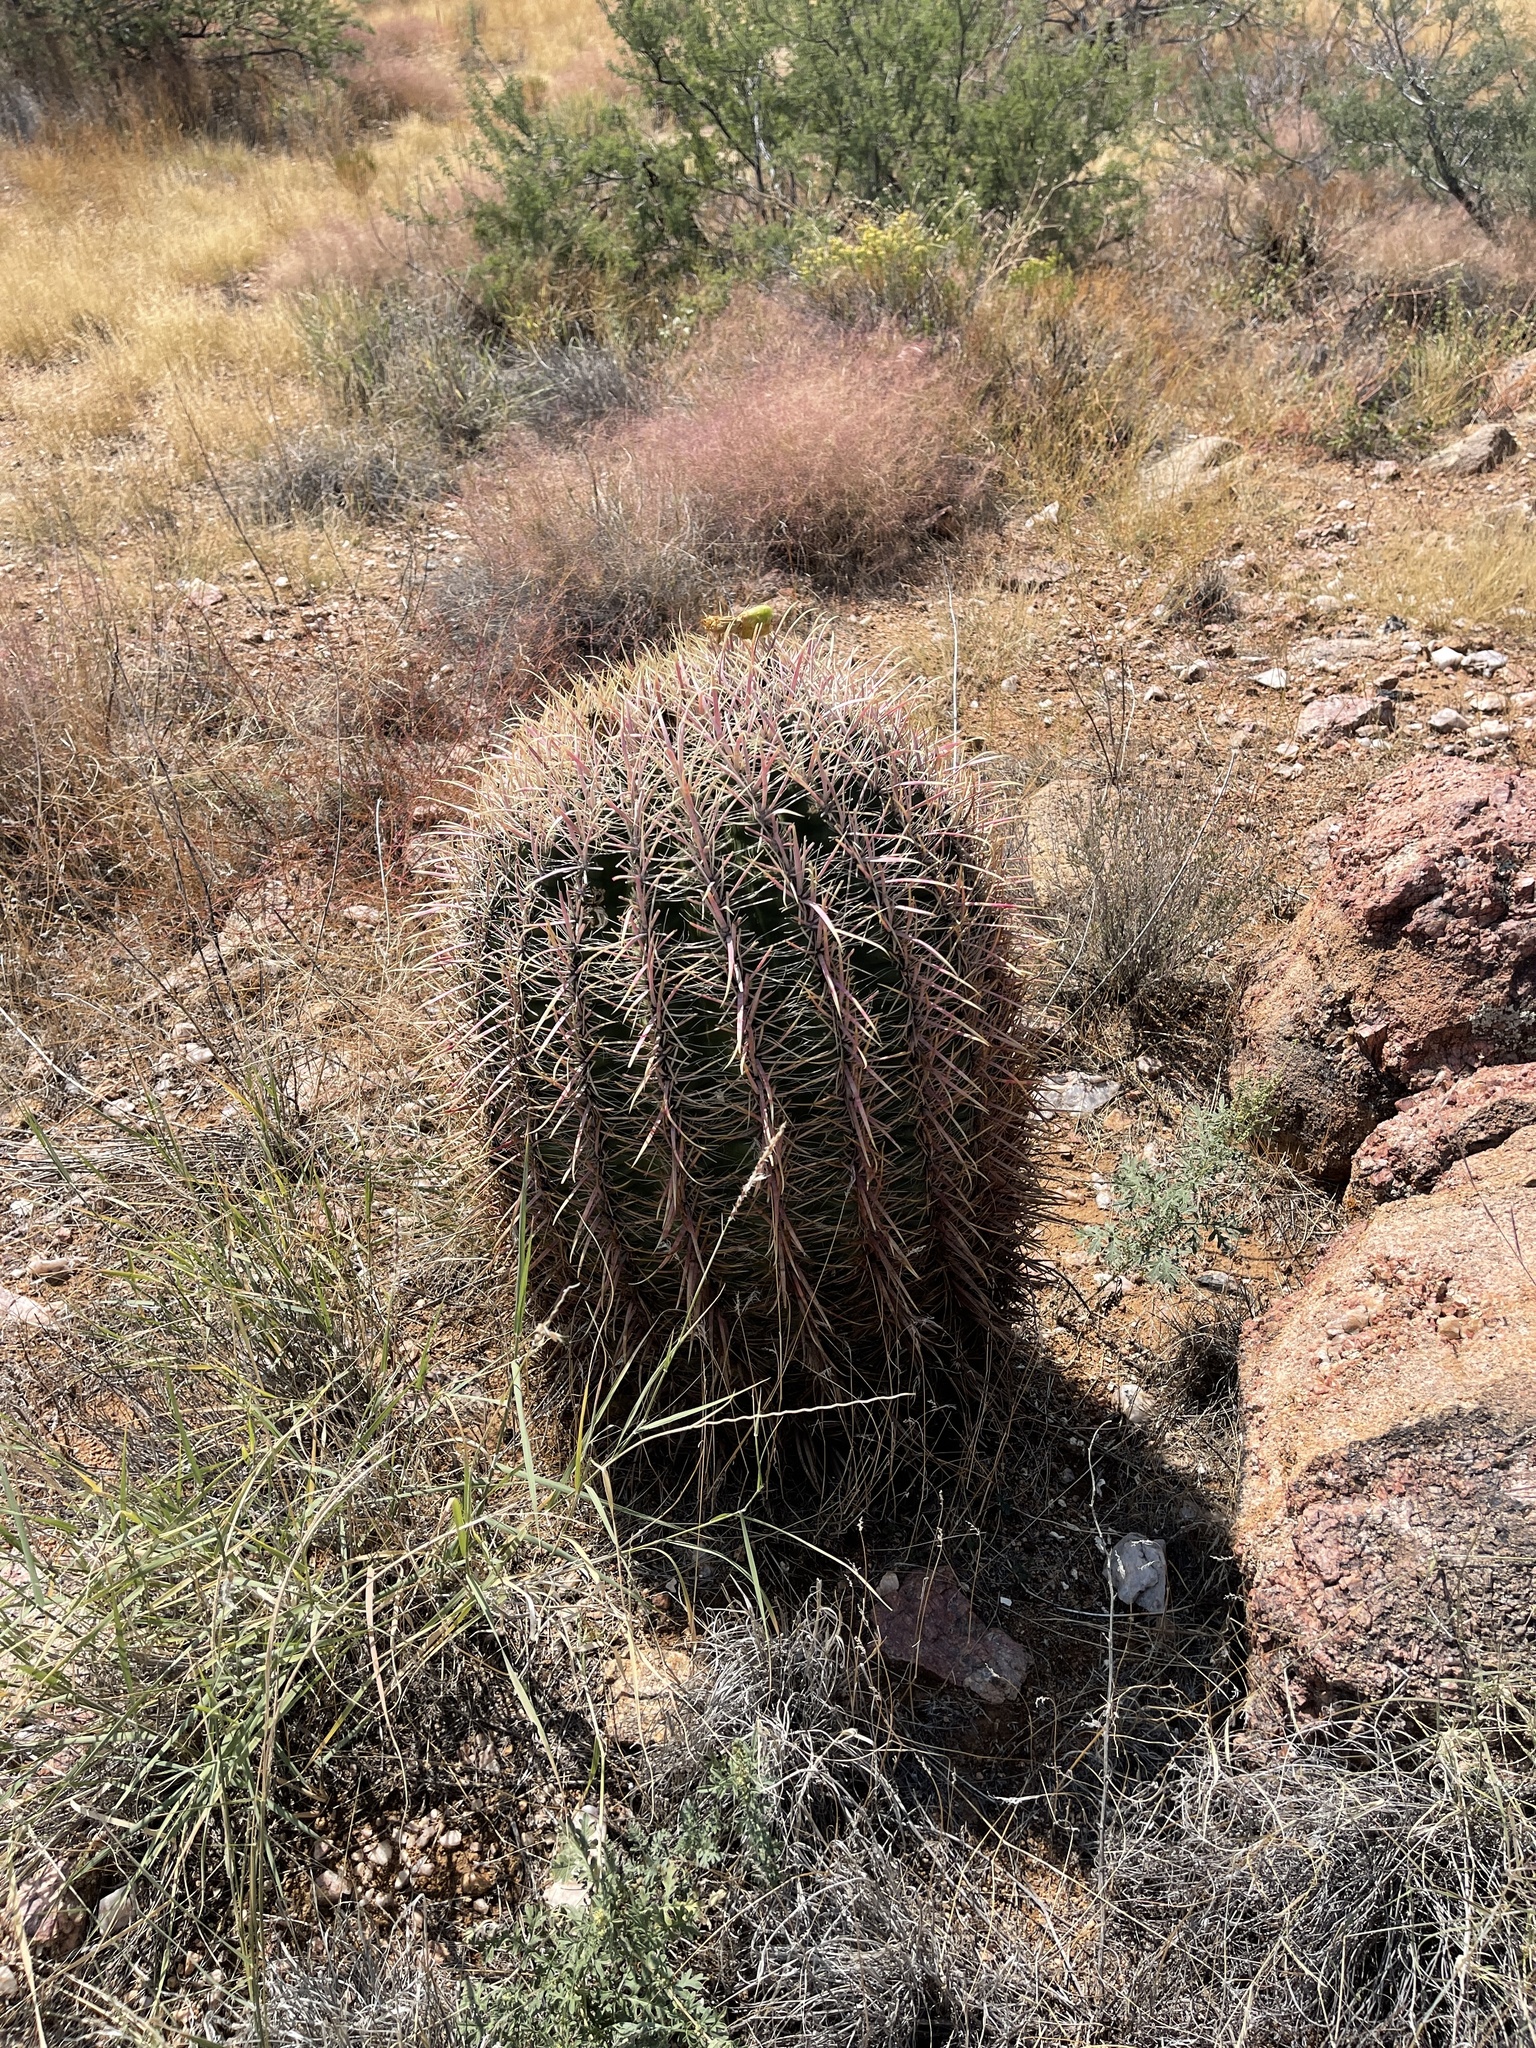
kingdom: Plantae
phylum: Tracheophyta
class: Magnoliopsida
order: Caryophyllales
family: Cactaceae
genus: Ferocactus
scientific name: Ferocactus cylindraceus
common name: California barrel cactus
